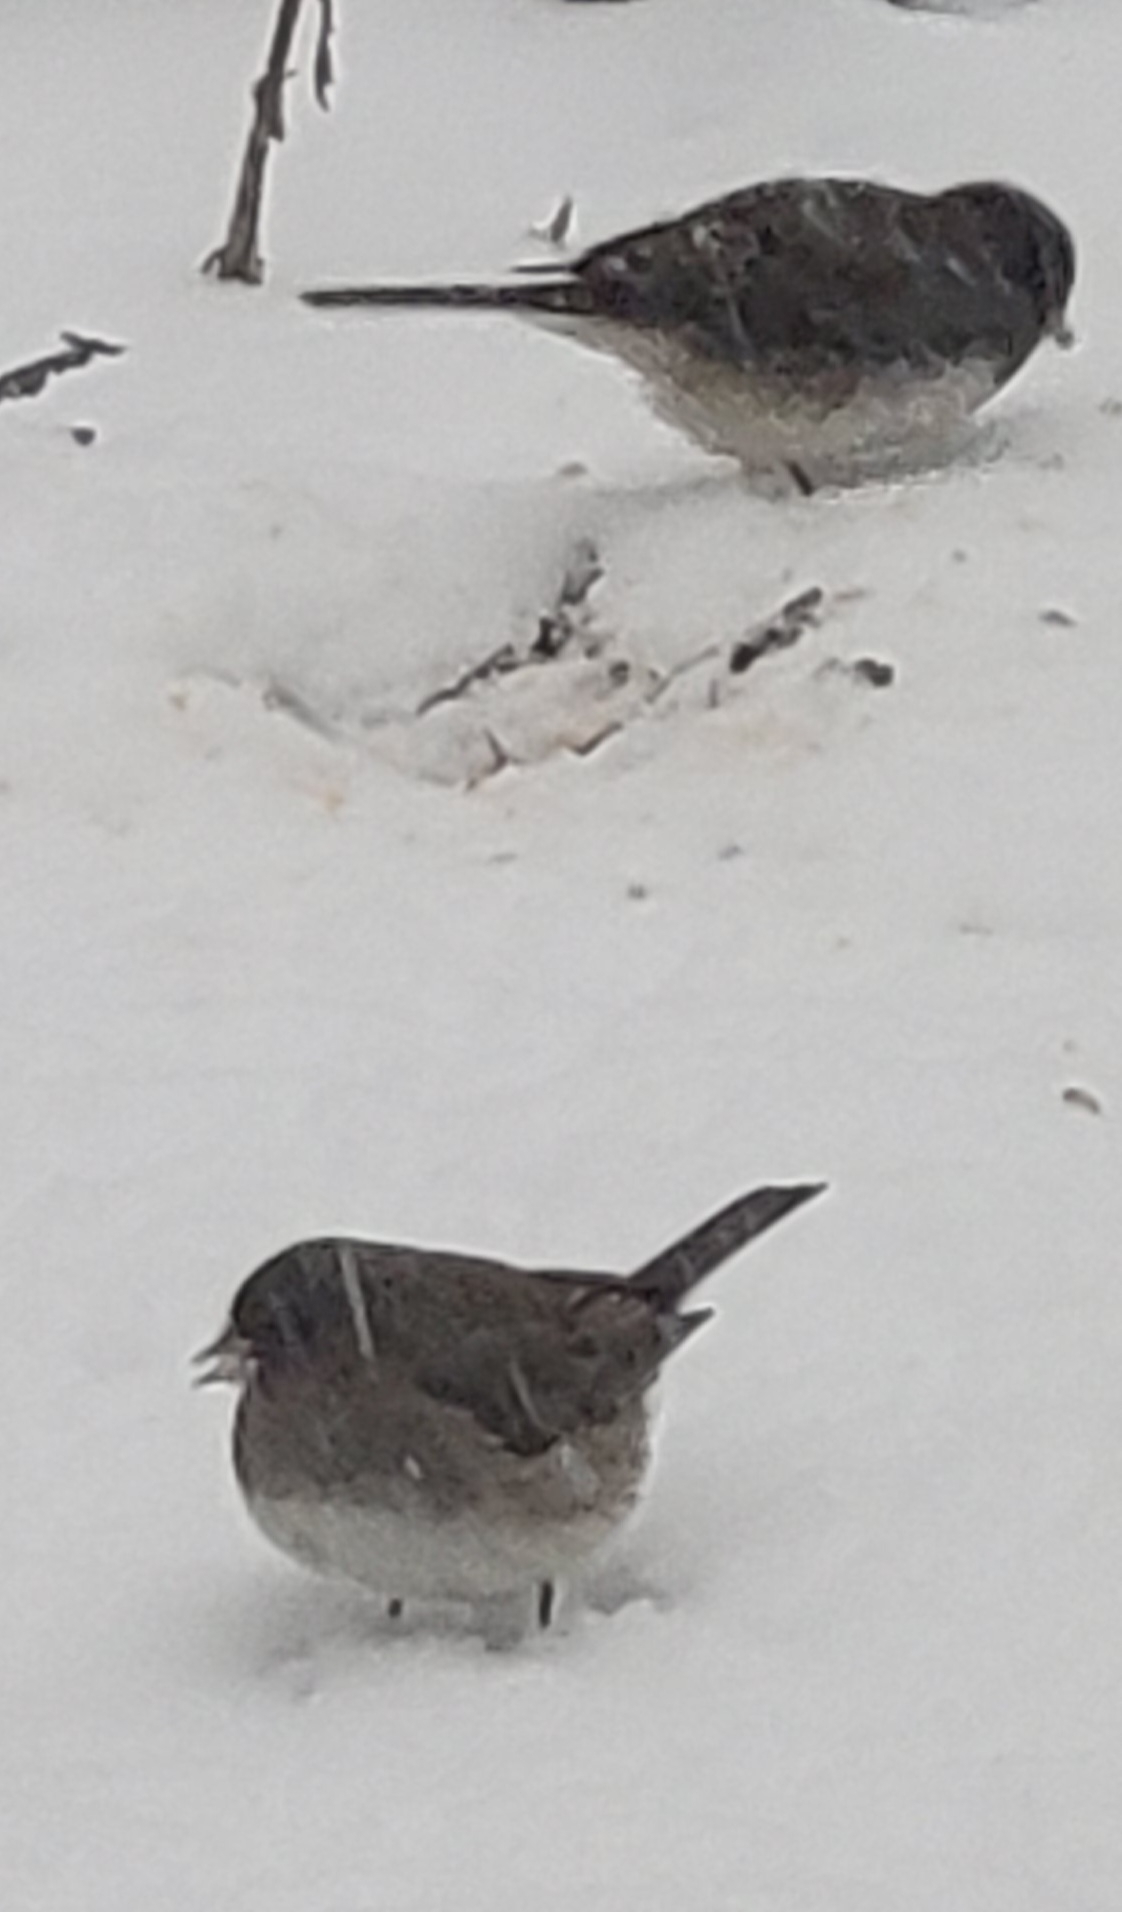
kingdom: Animalia
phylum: Chordata
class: Aves
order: Passeriformes
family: Passerellidae
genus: Junco
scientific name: Junco hyemalis
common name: Dark-eyed junco
